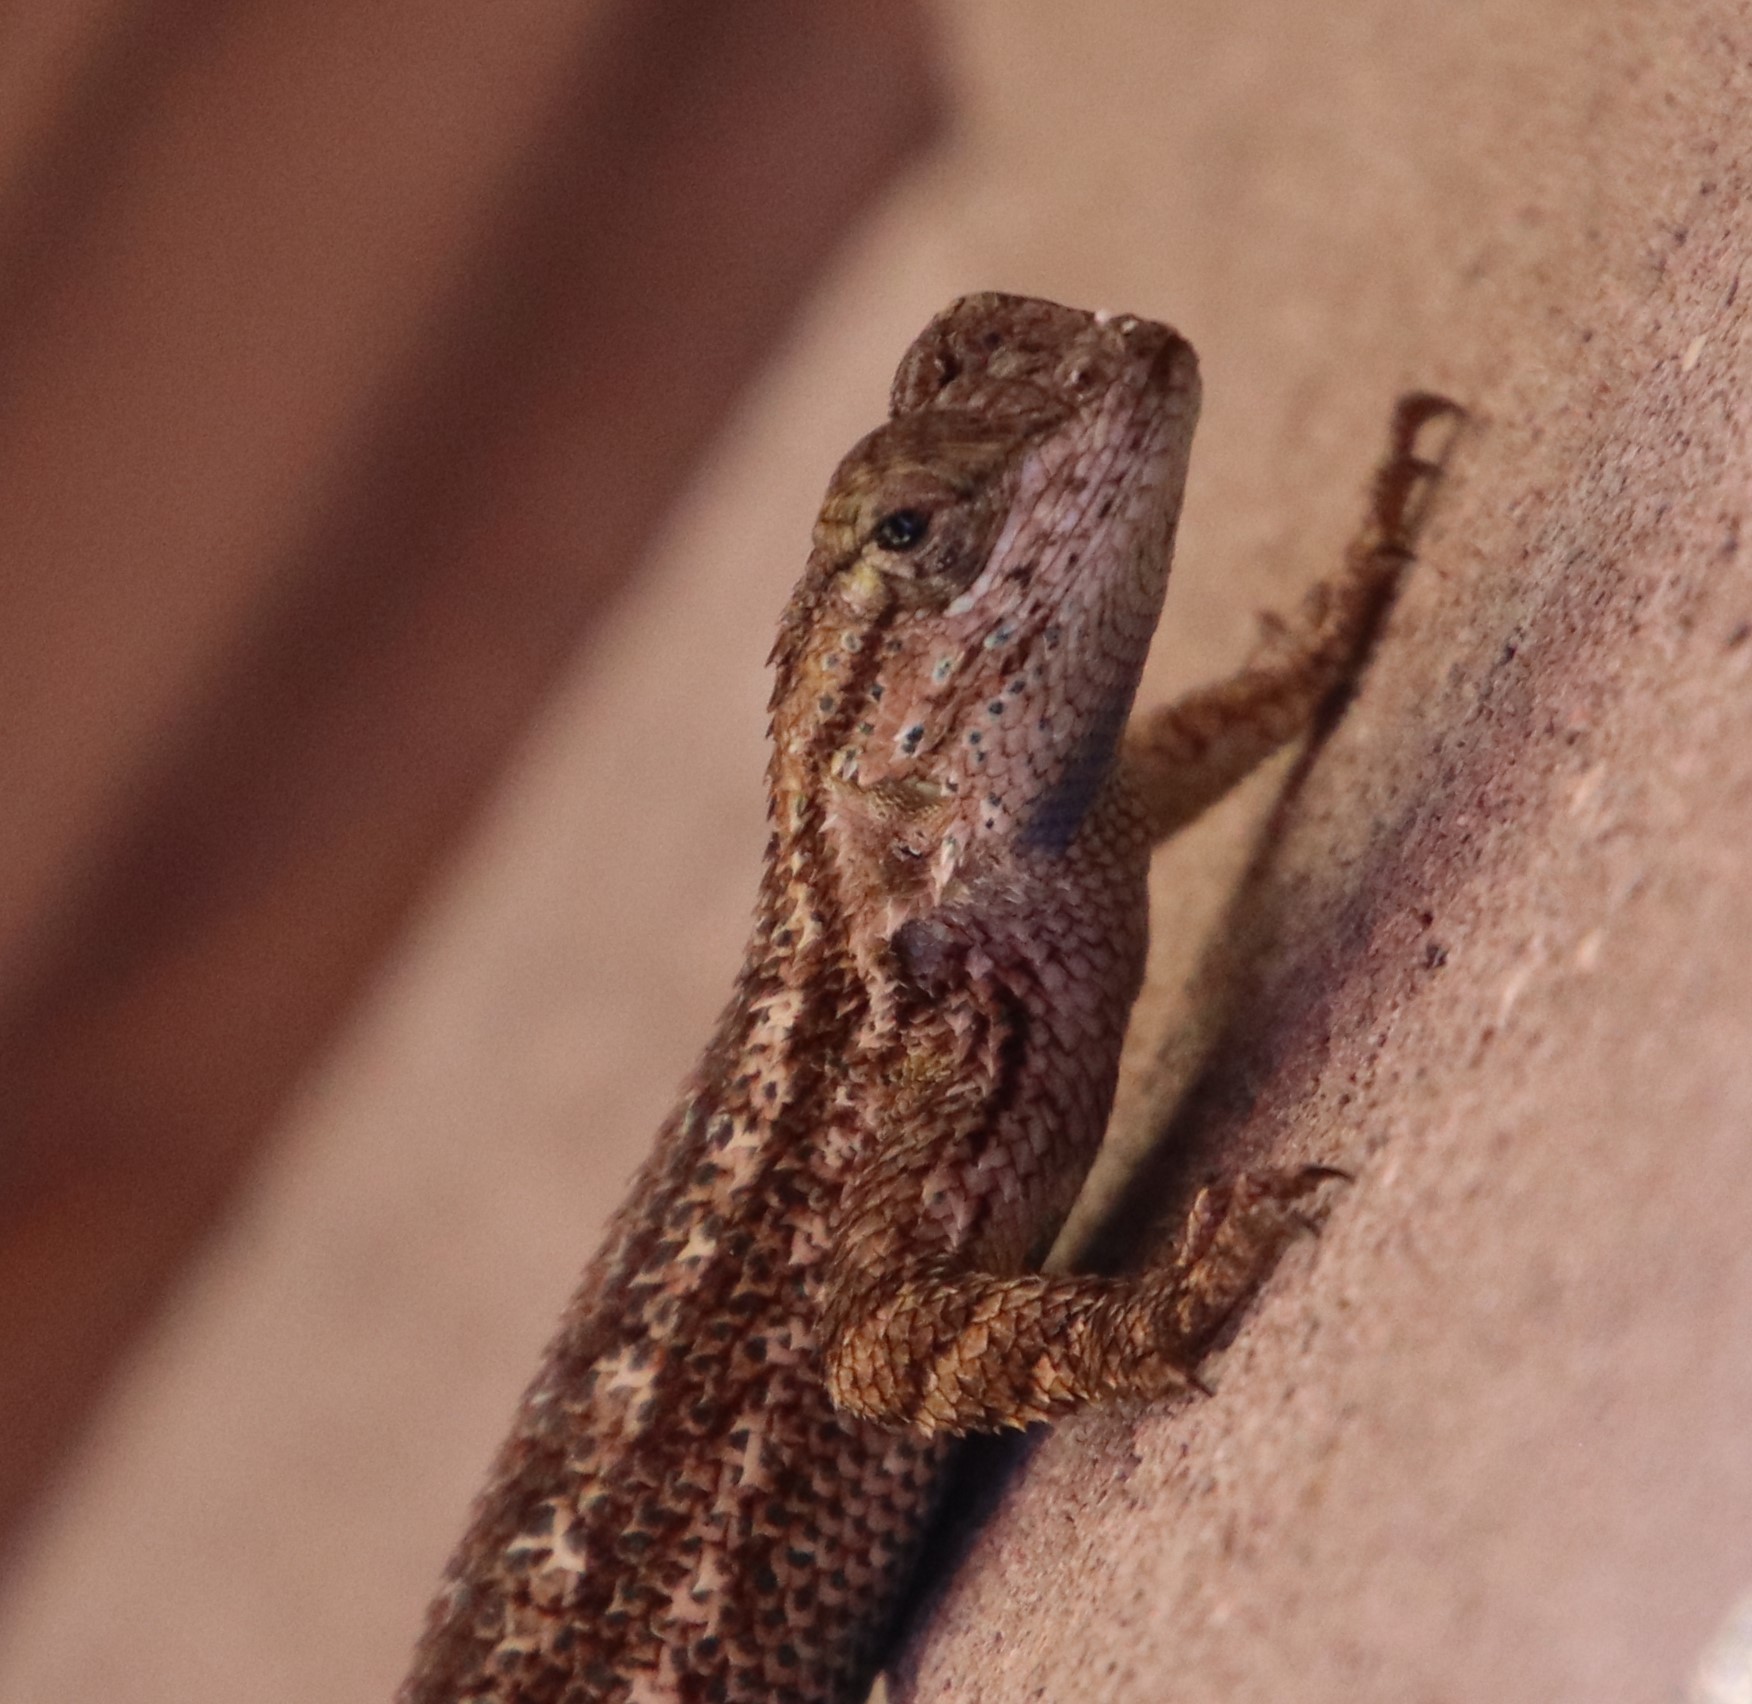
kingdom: Animalia
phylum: Chordata
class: Squamata
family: Phrynosomatidae
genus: Sceloporus
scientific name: Sceloporus occidentalis
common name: Western fence lizard
